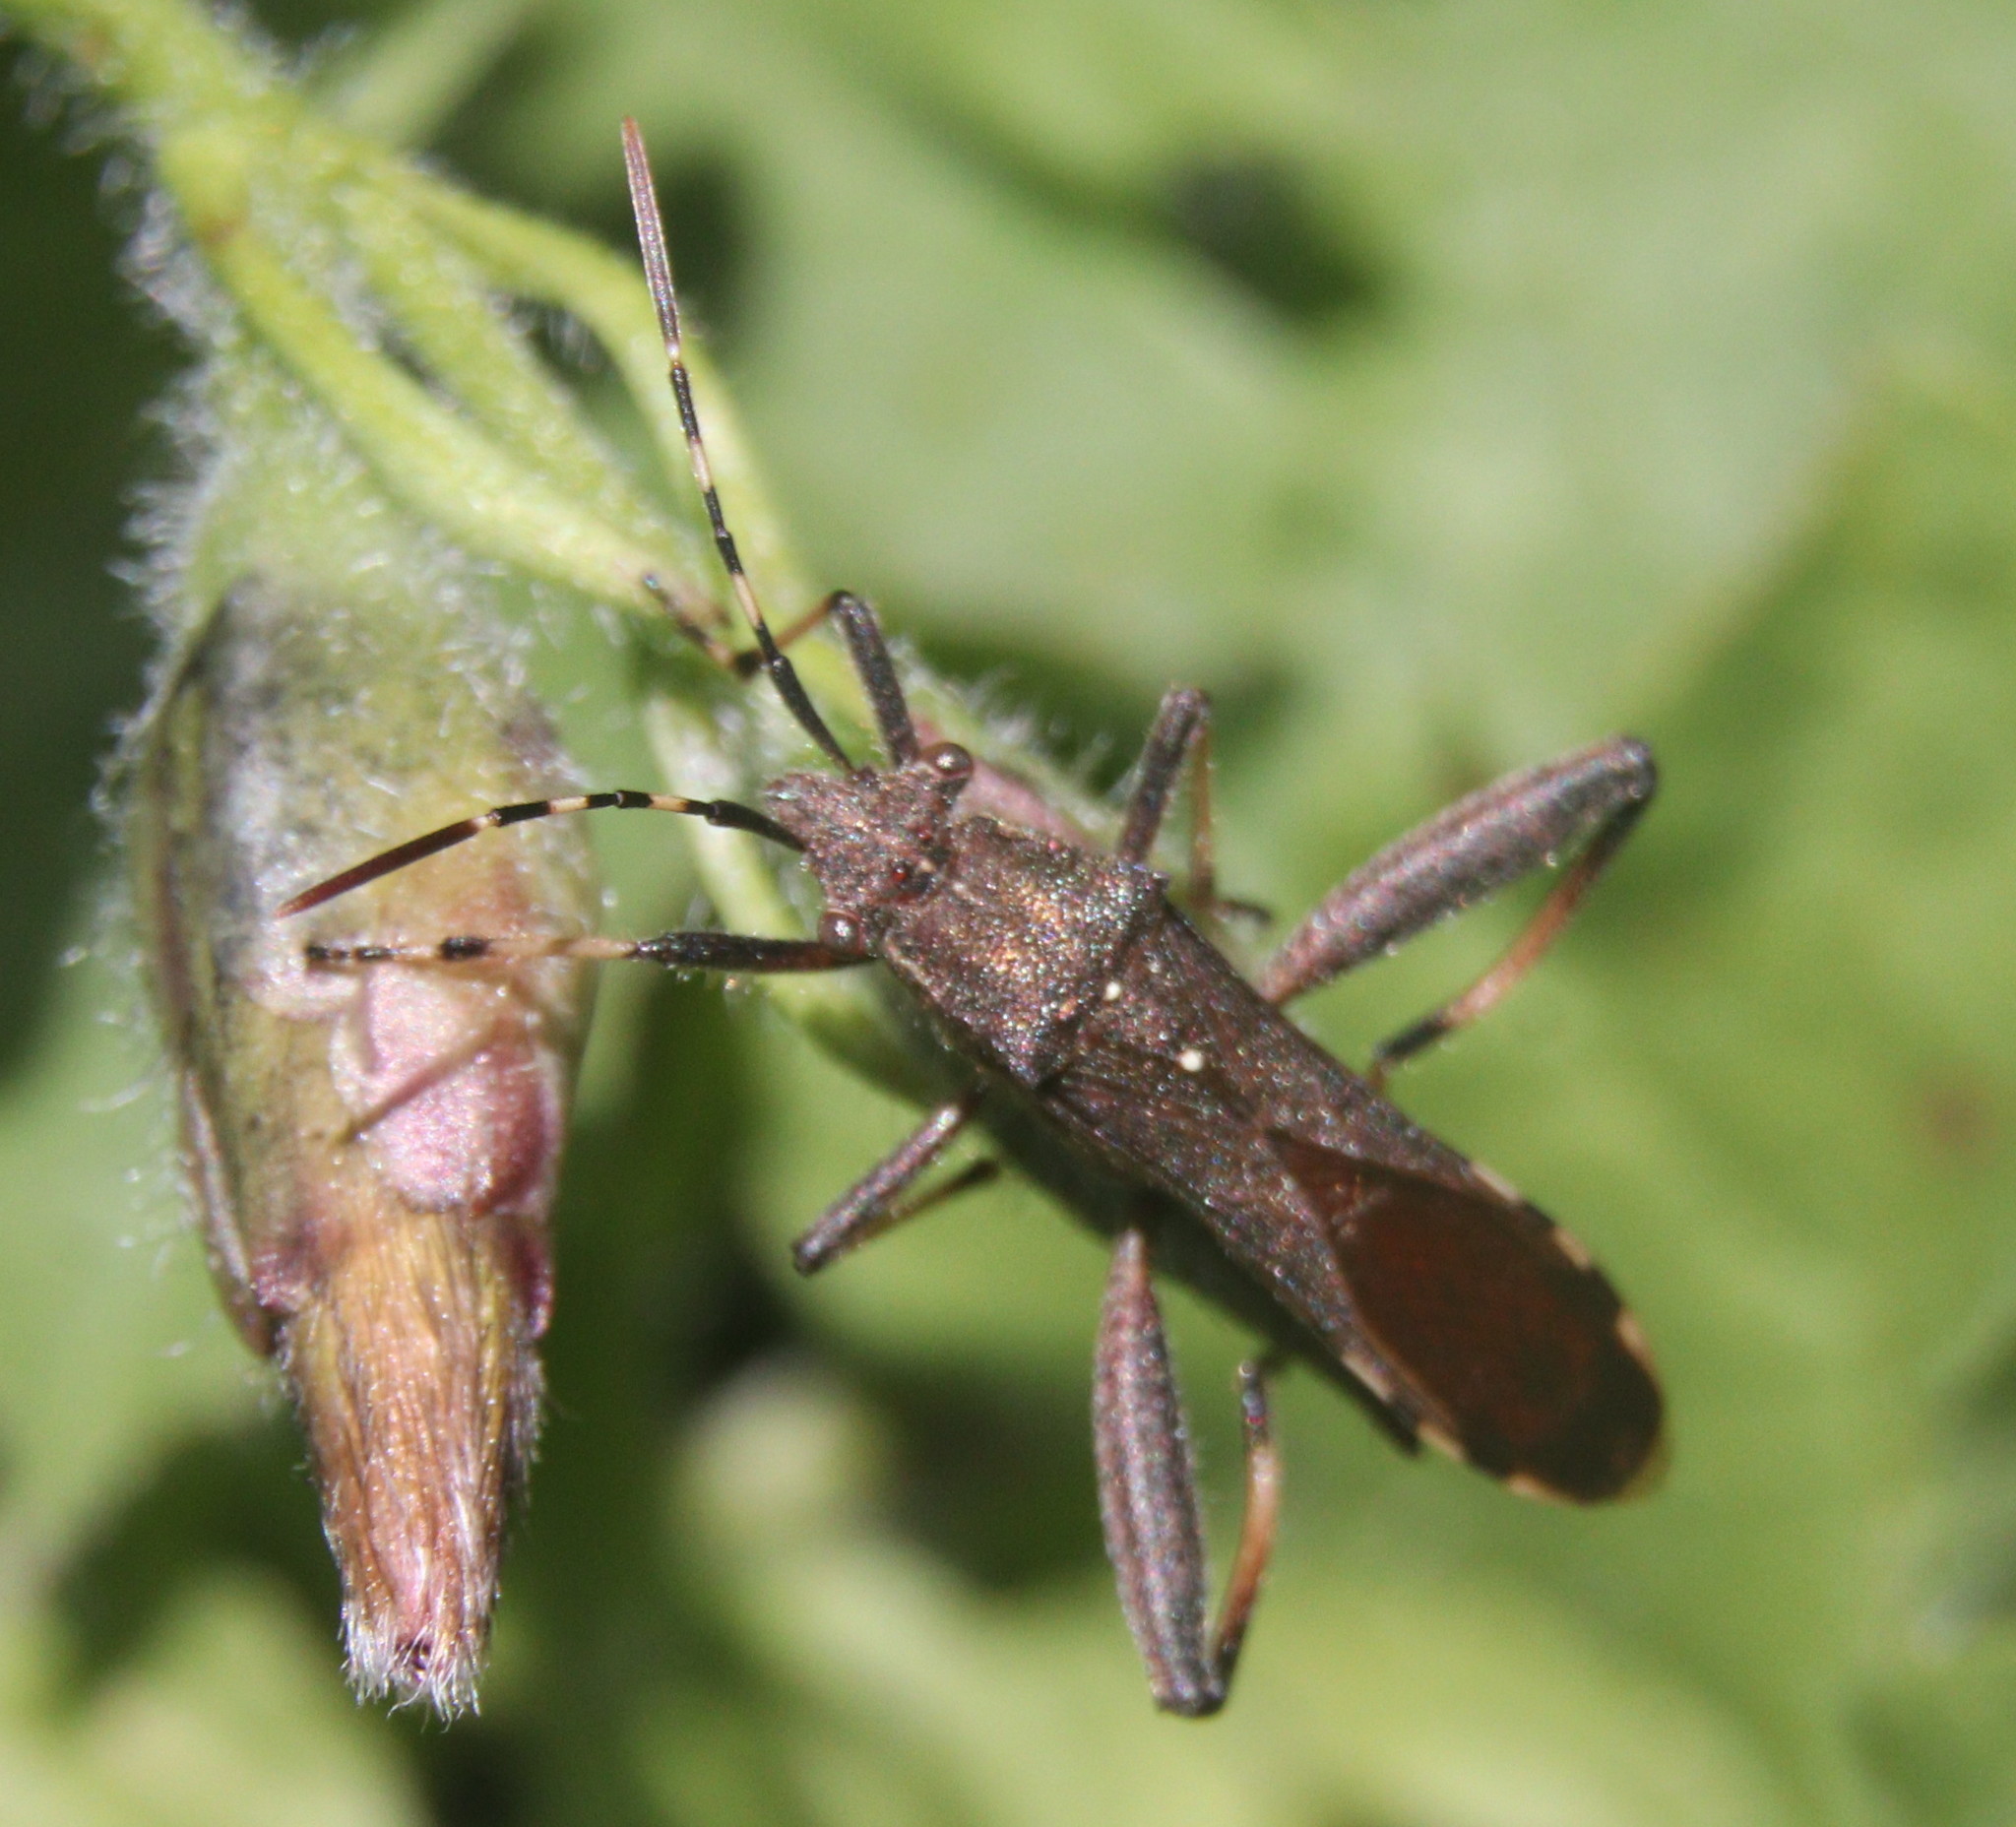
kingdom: Animalia
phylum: Arthropoda
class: Insecta
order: Hemiptera
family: Alydidae
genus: Camptopus
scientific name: Camptopus lateralis
